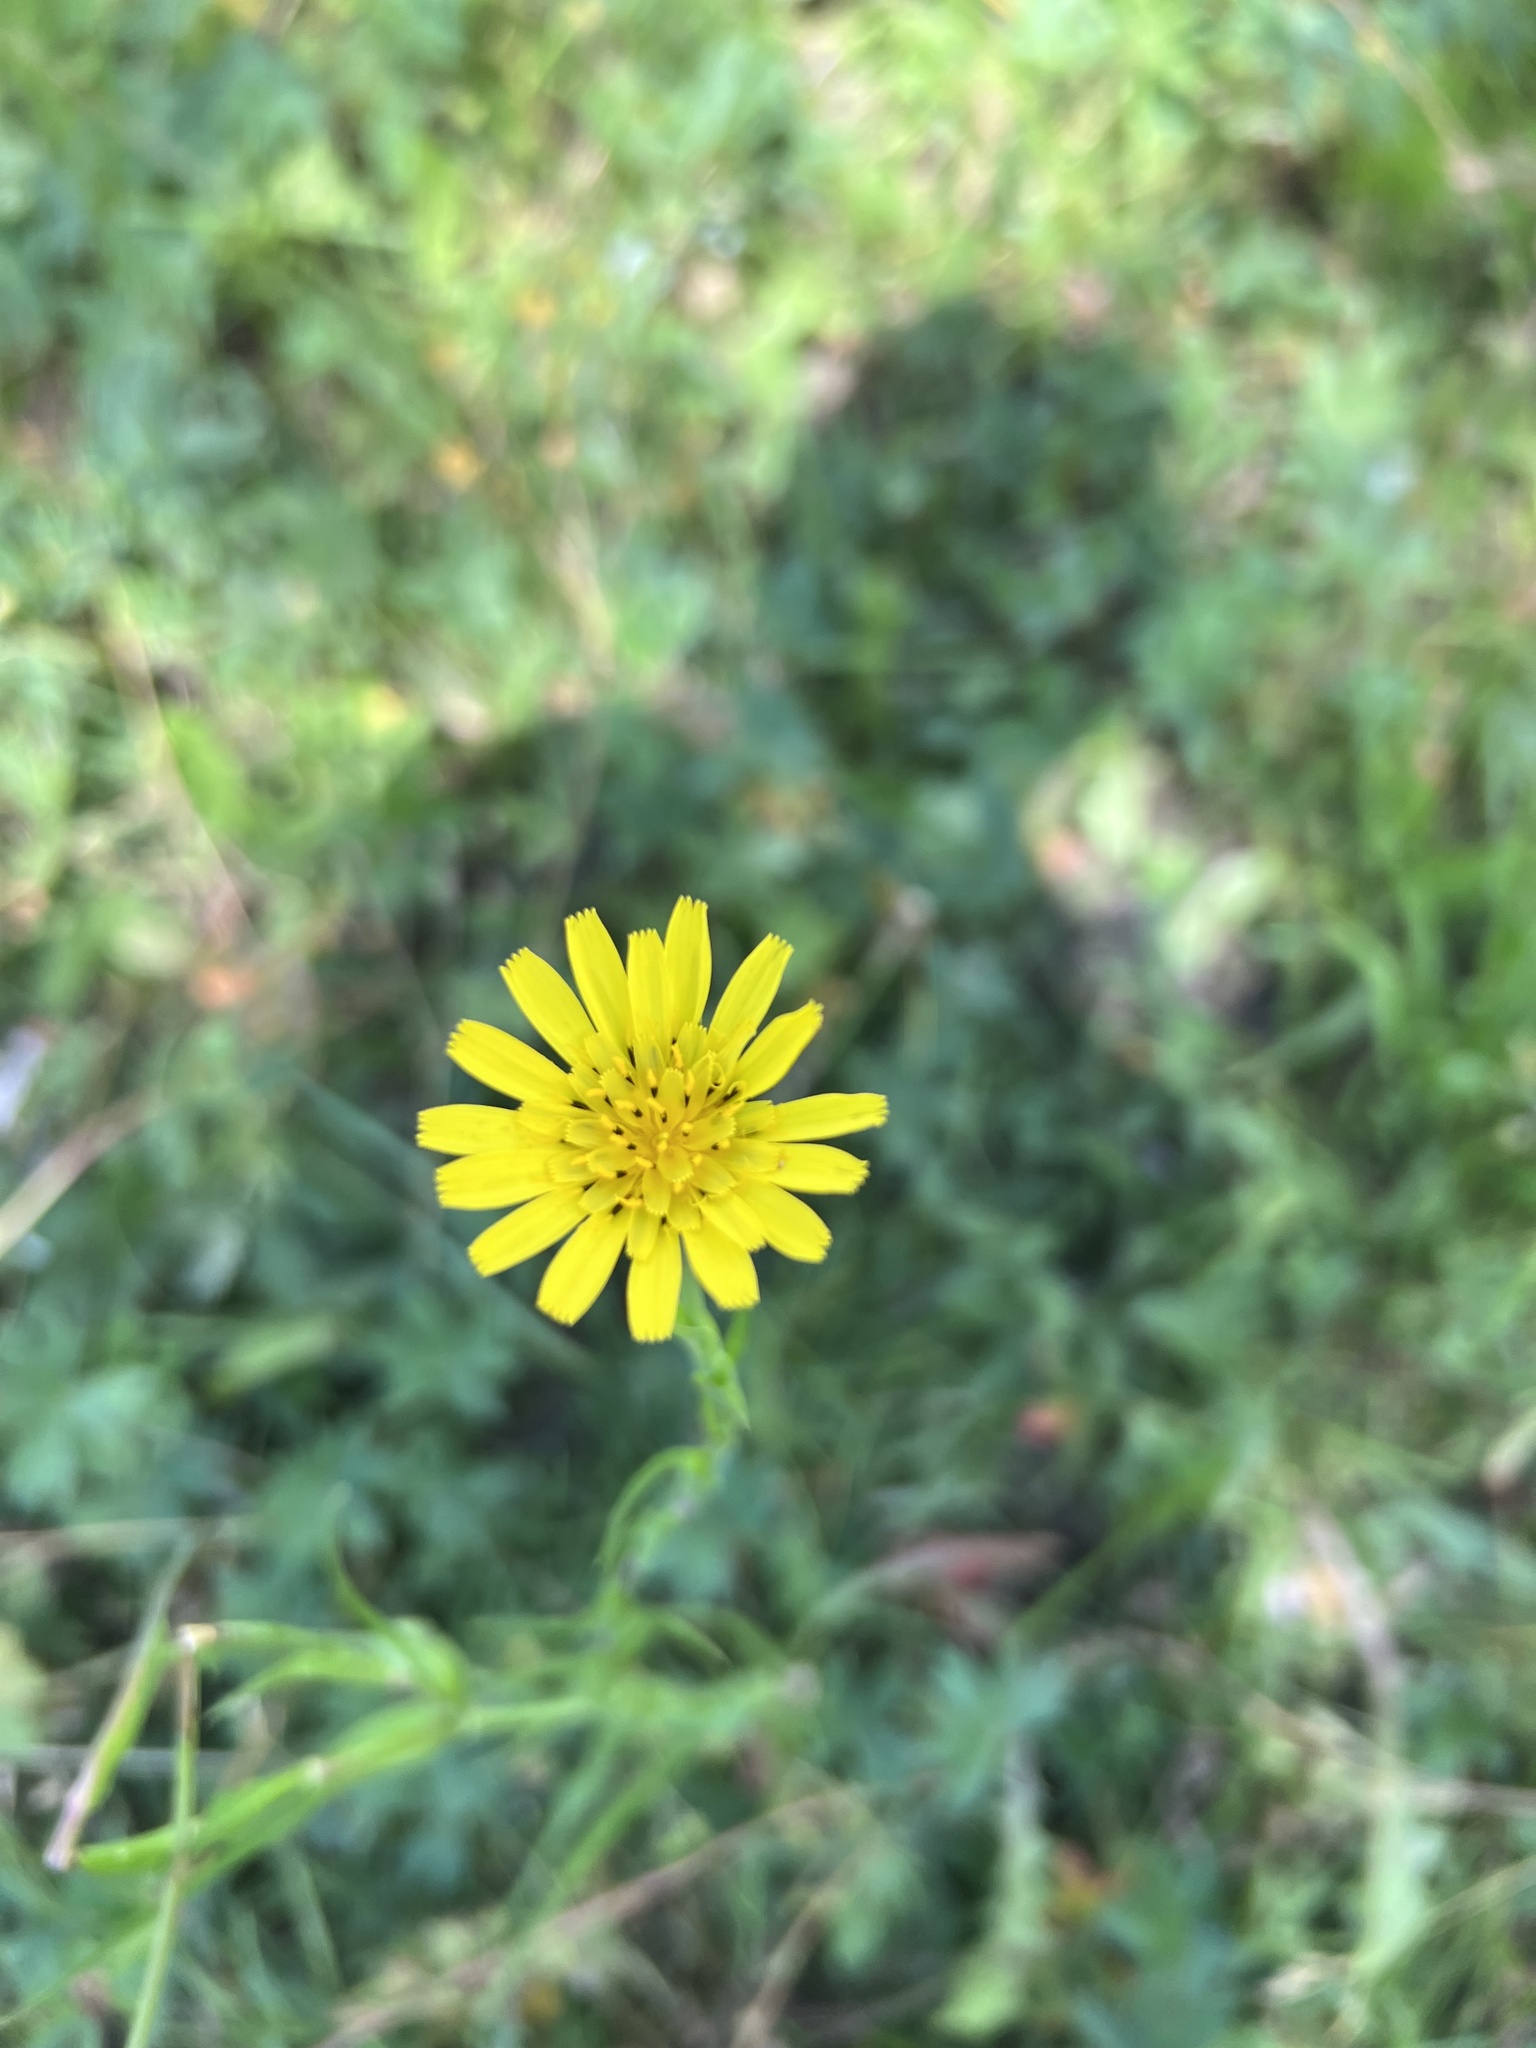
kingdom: Plantae
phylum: Tracheophyta
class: Magnoliopsida
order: Asterales
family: Asteraceae
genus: Tragopogon
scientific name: Tragopogon dubius
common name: Yellow salsify
